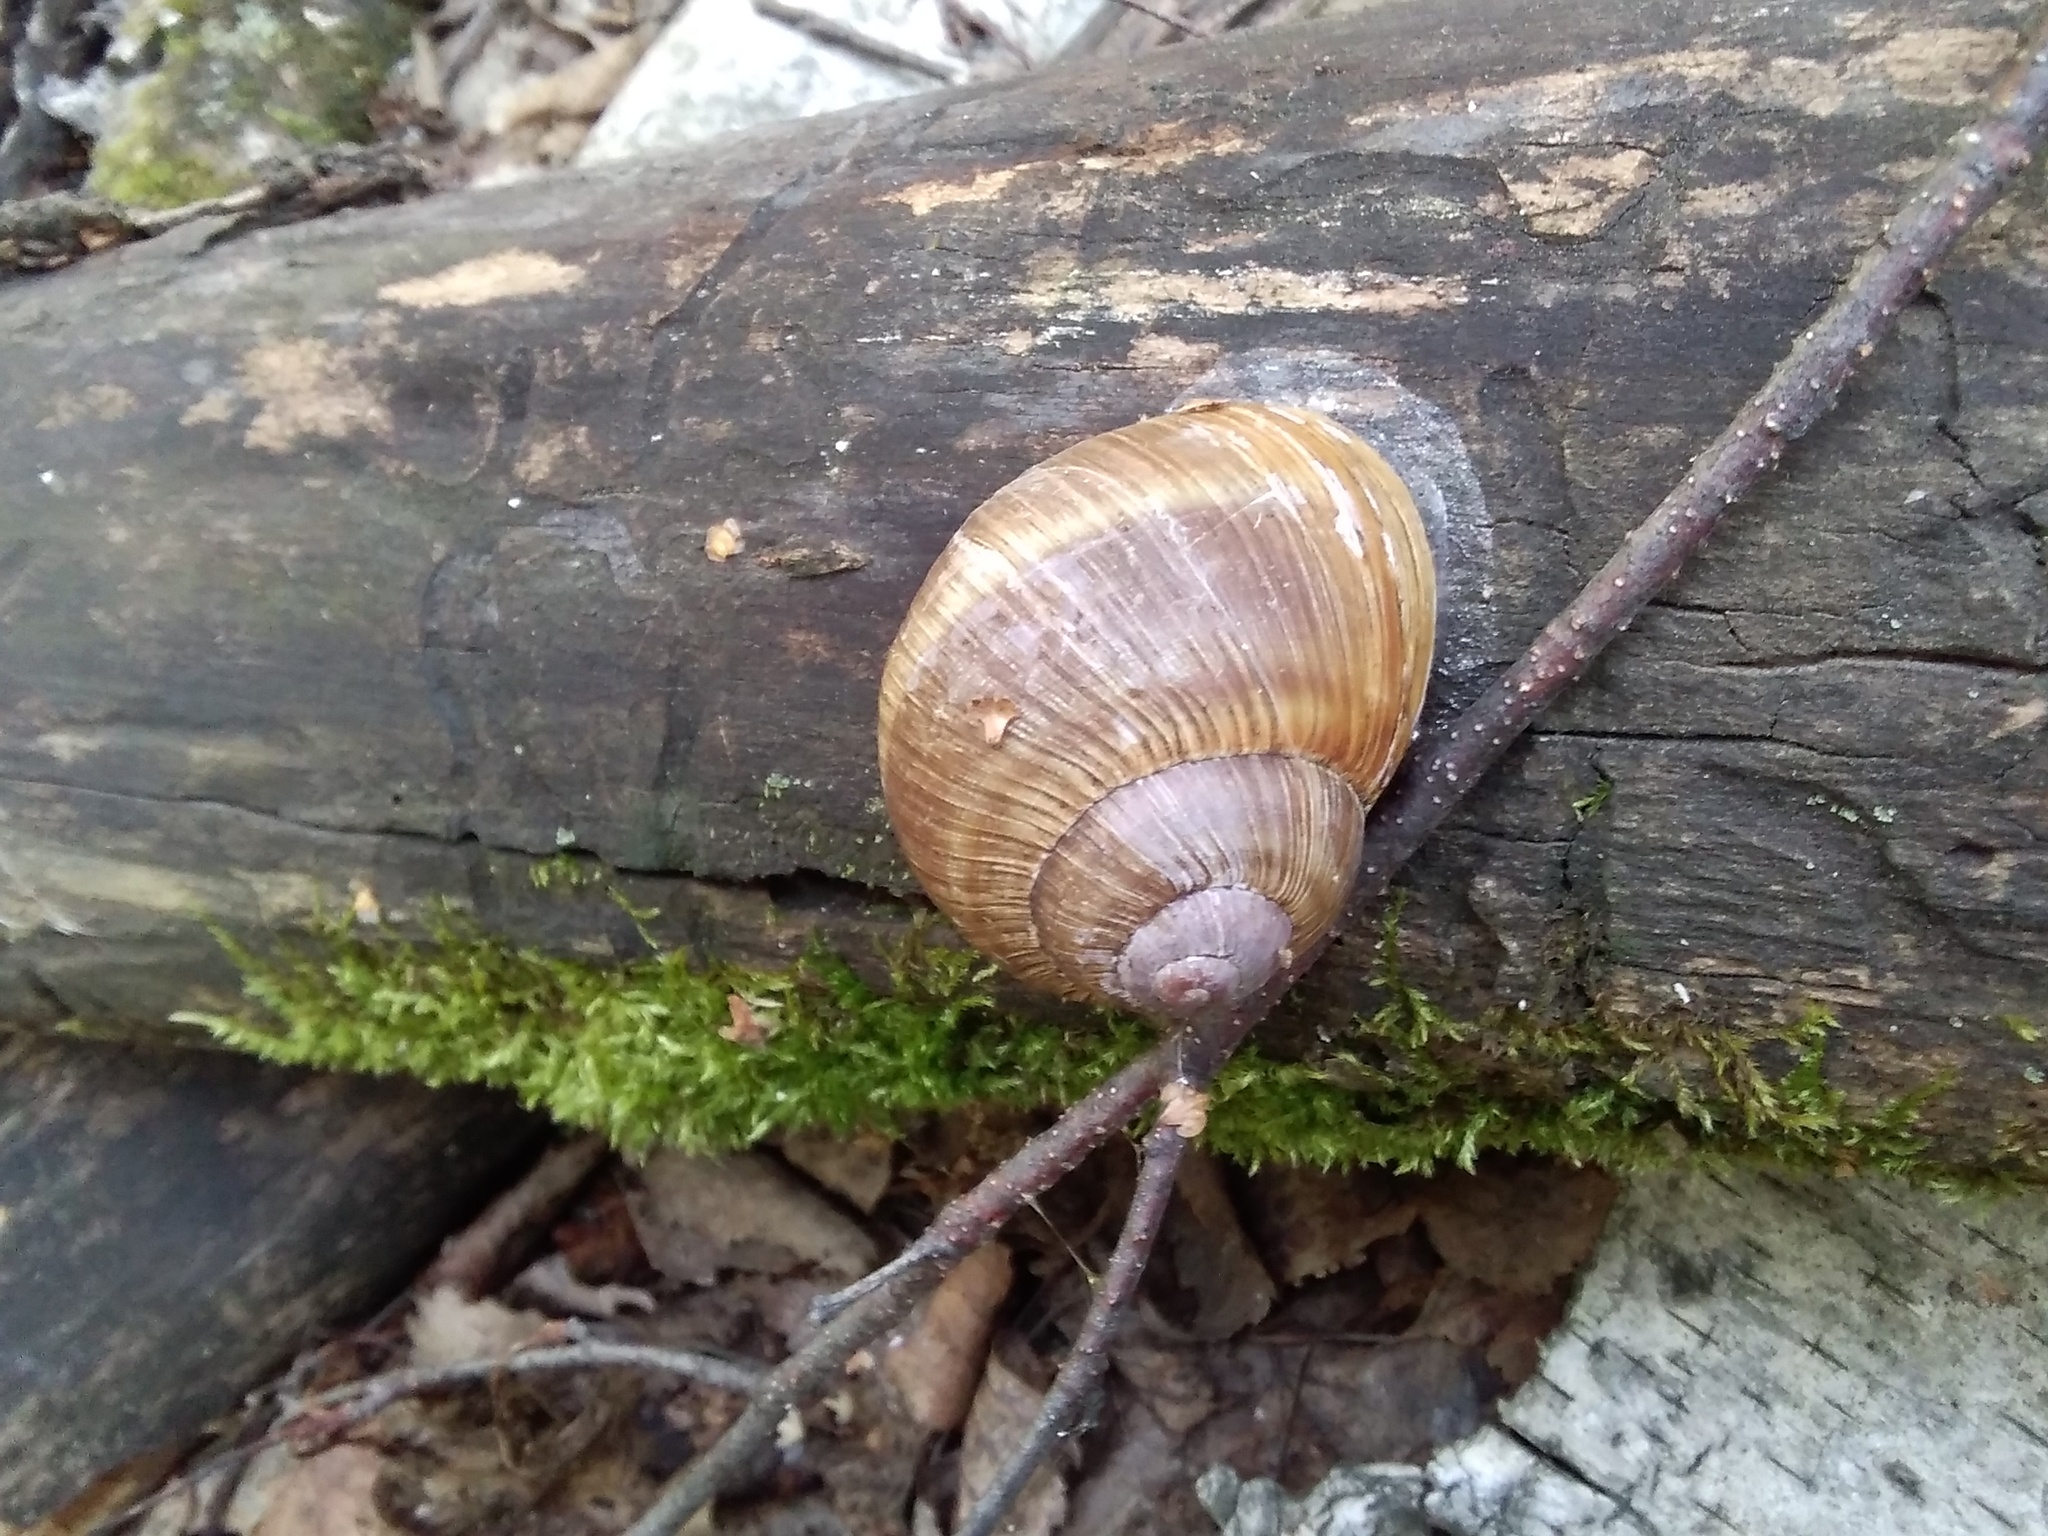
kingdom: Animalia
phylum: Mollusca
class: Gastropoda
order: Stylommatophora
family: Helicidae
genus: Helix
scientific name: Helix pomatia
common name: Roman snail
